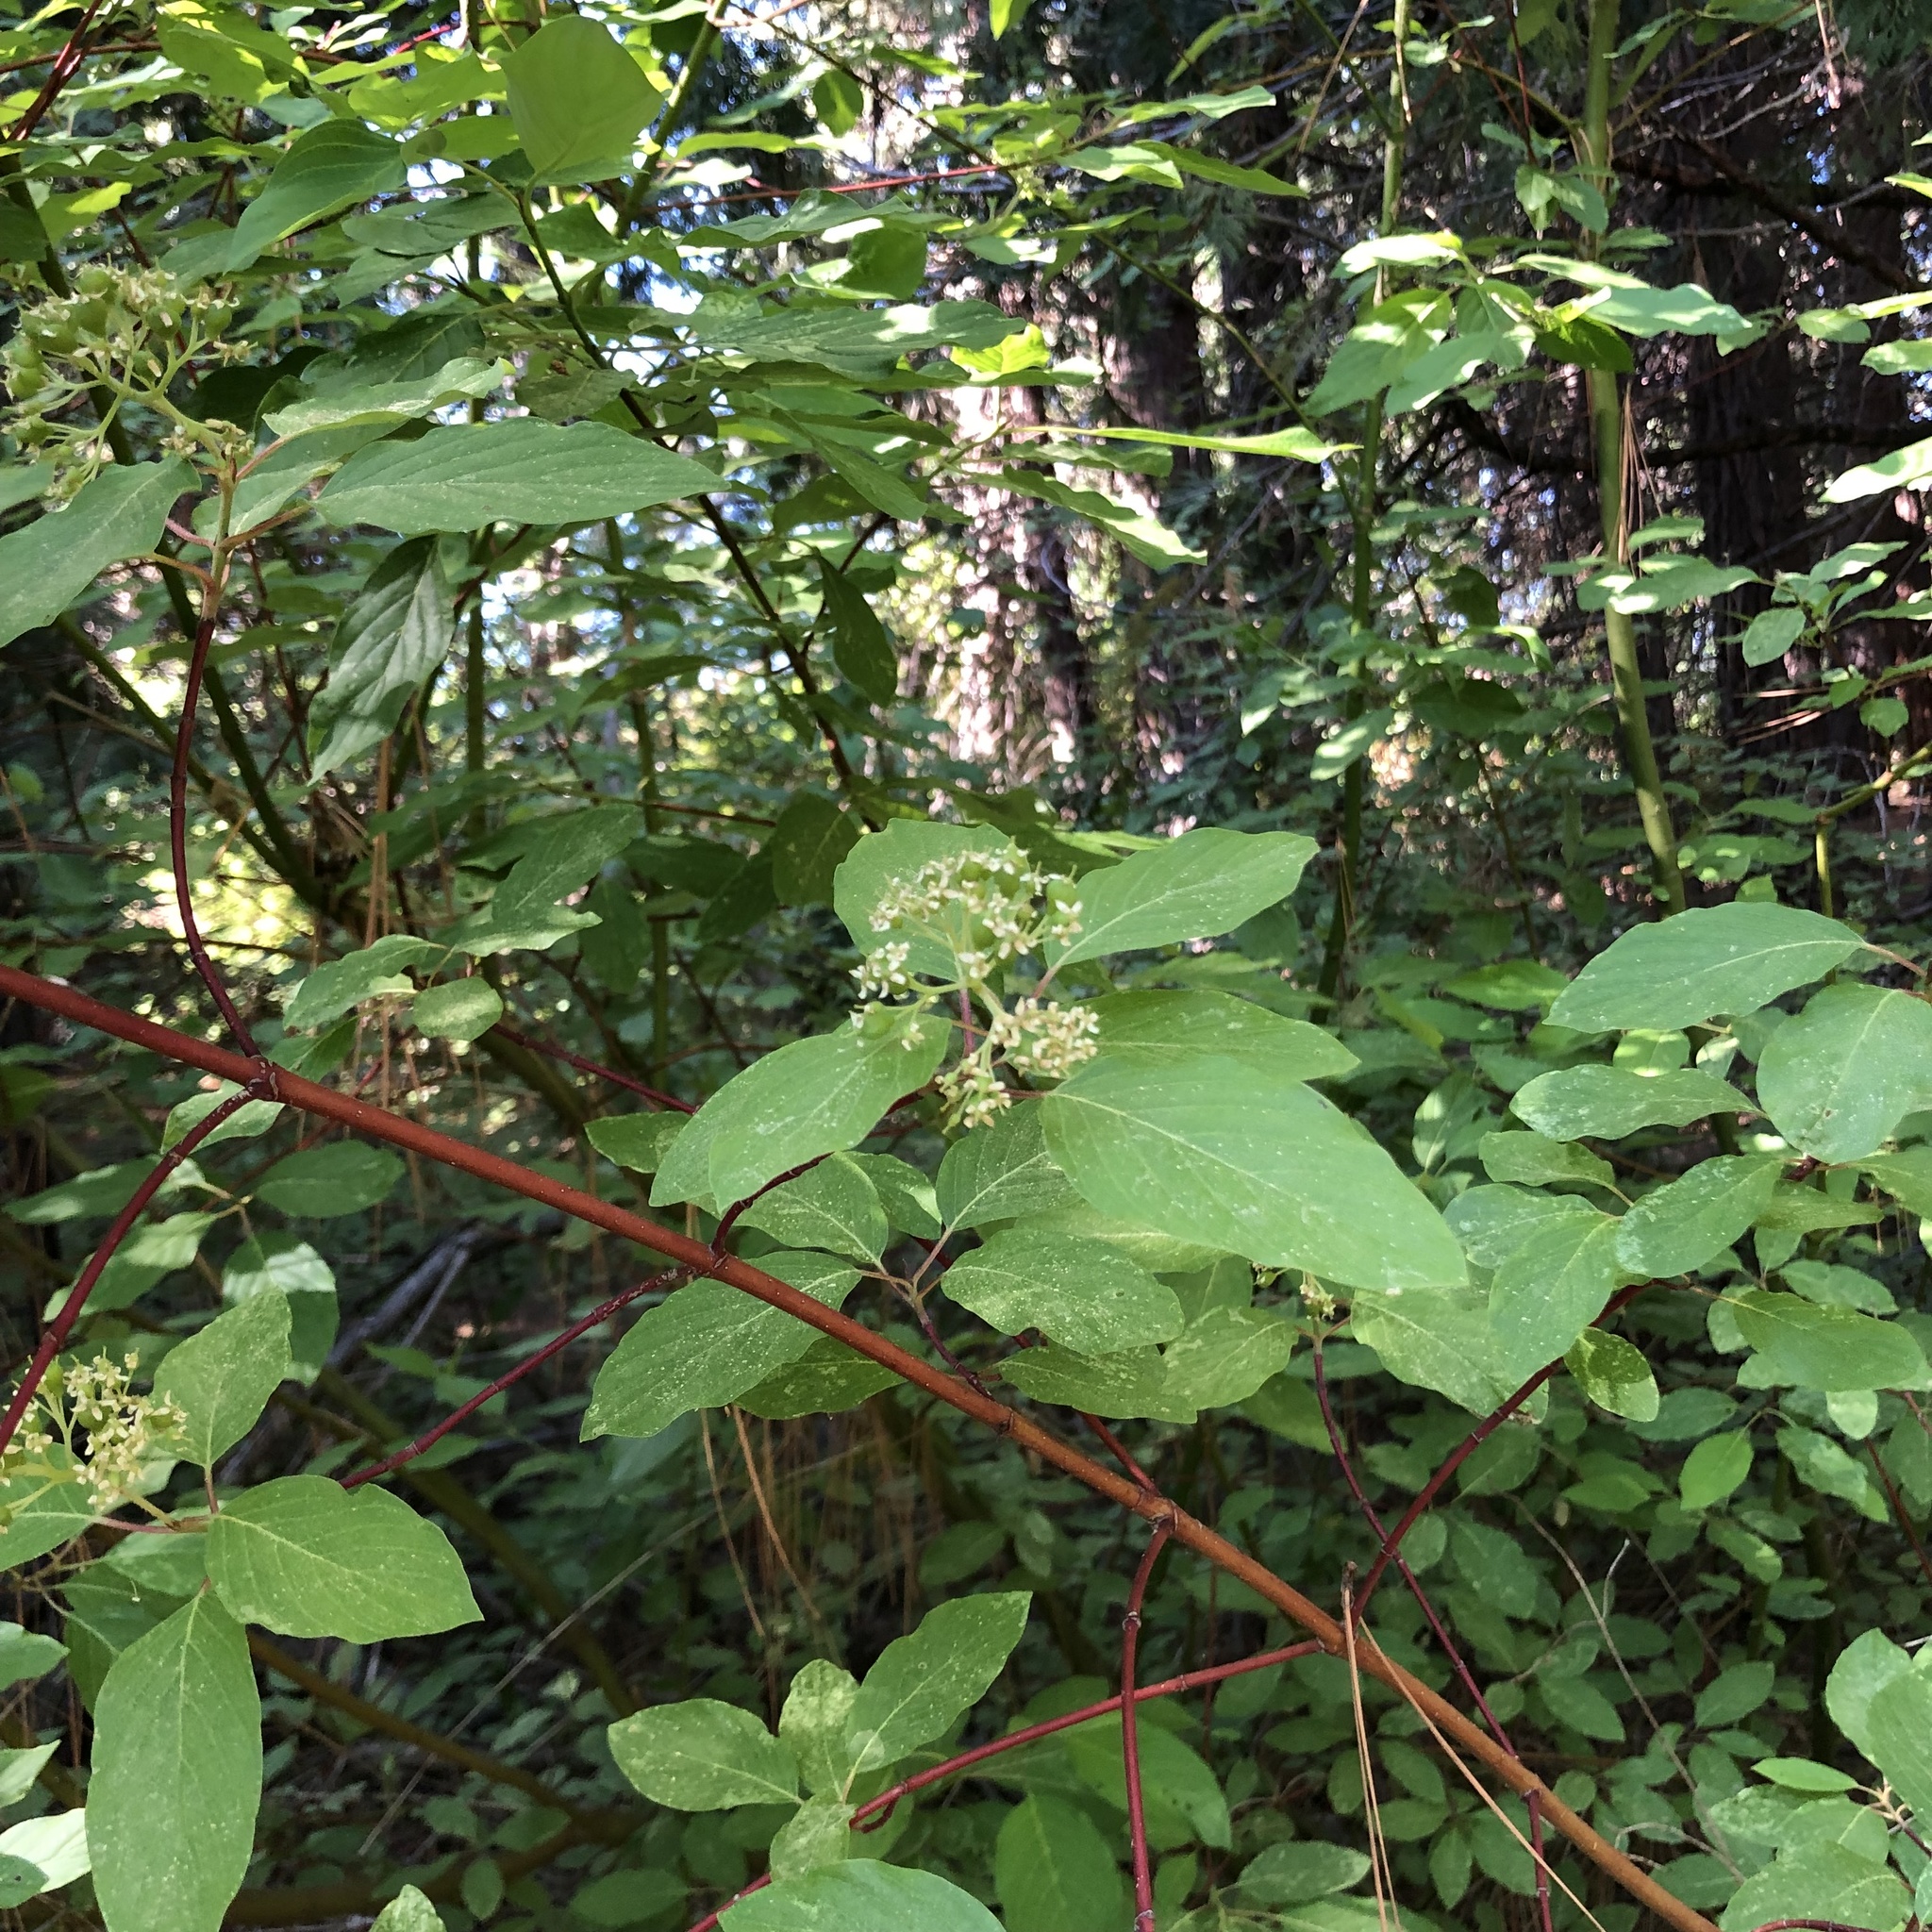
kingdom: Plantae
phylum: Tracheophyta
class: Magnoliopsida
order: Cornales
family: Cornaceae
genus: Cornus
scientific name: Cornus sericea
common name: Red-osier dogwood
